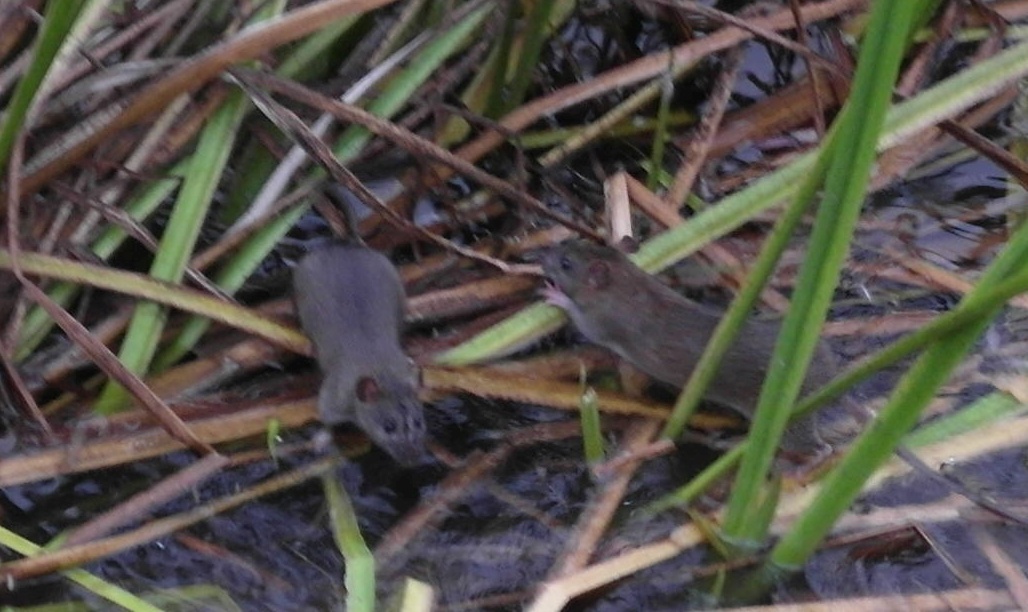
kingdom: Animalia
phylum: Chordata
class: Mammalia
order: Rodentia
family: Muridae
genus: Rattus
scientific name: Rattus norvegicus
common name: Brown rat
